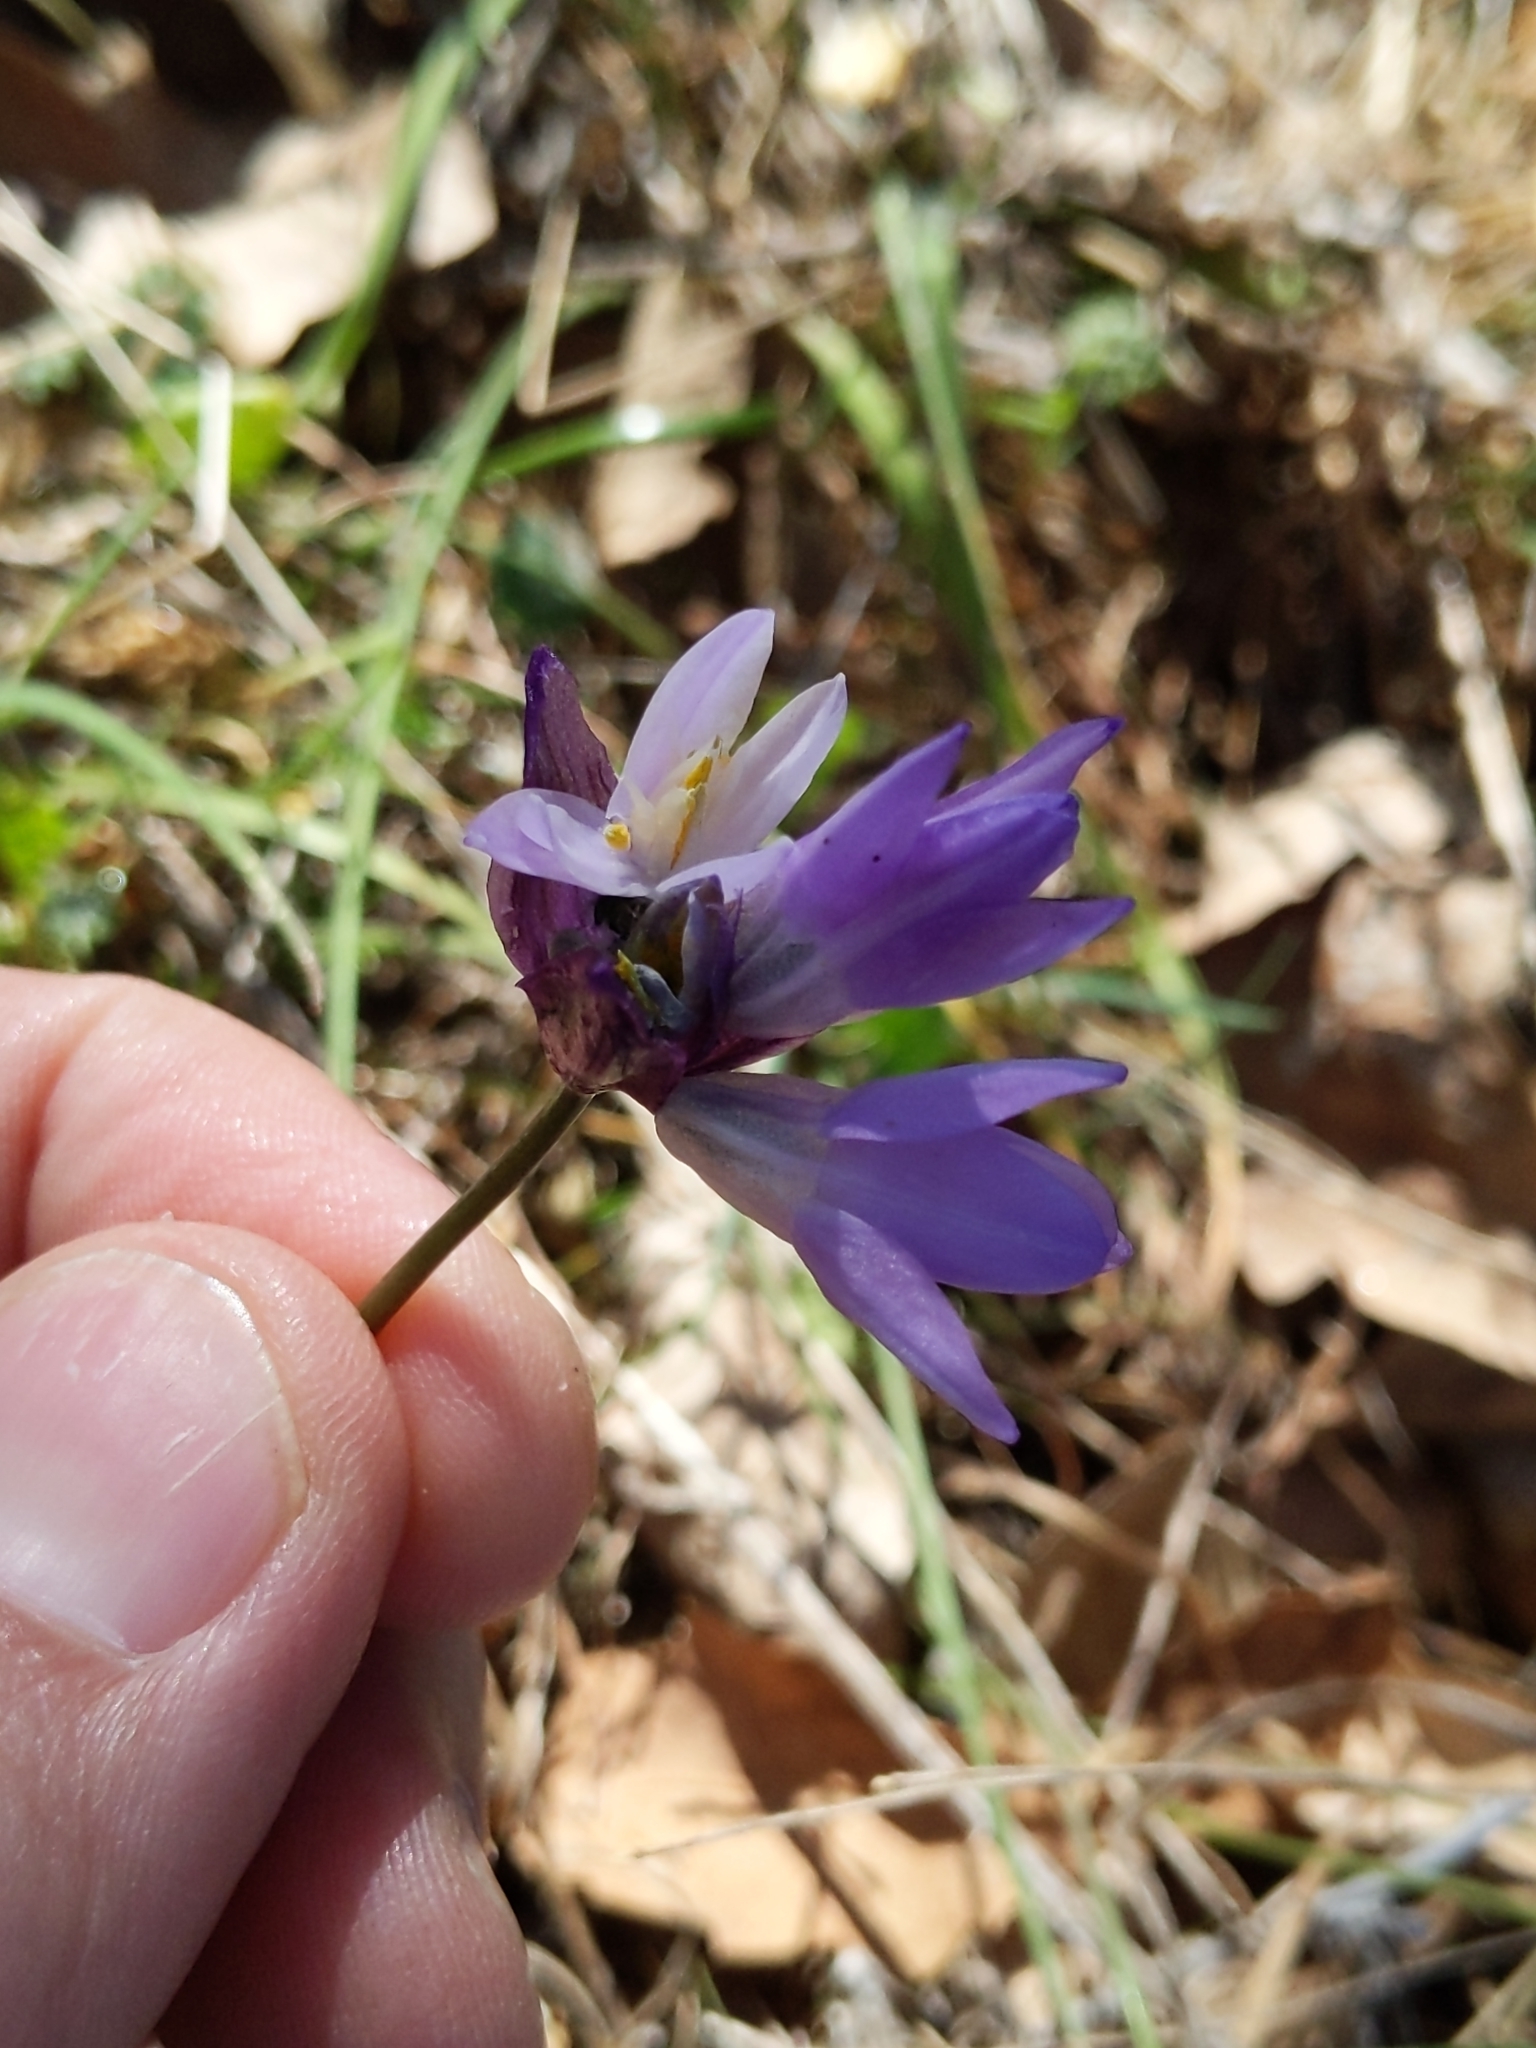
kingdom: Plantae
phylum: Tracheophyta
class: Liliopsida
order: Asparagales
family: Asparagaceae
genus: Dipterostemon
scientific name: Dipterostemon capitatus
